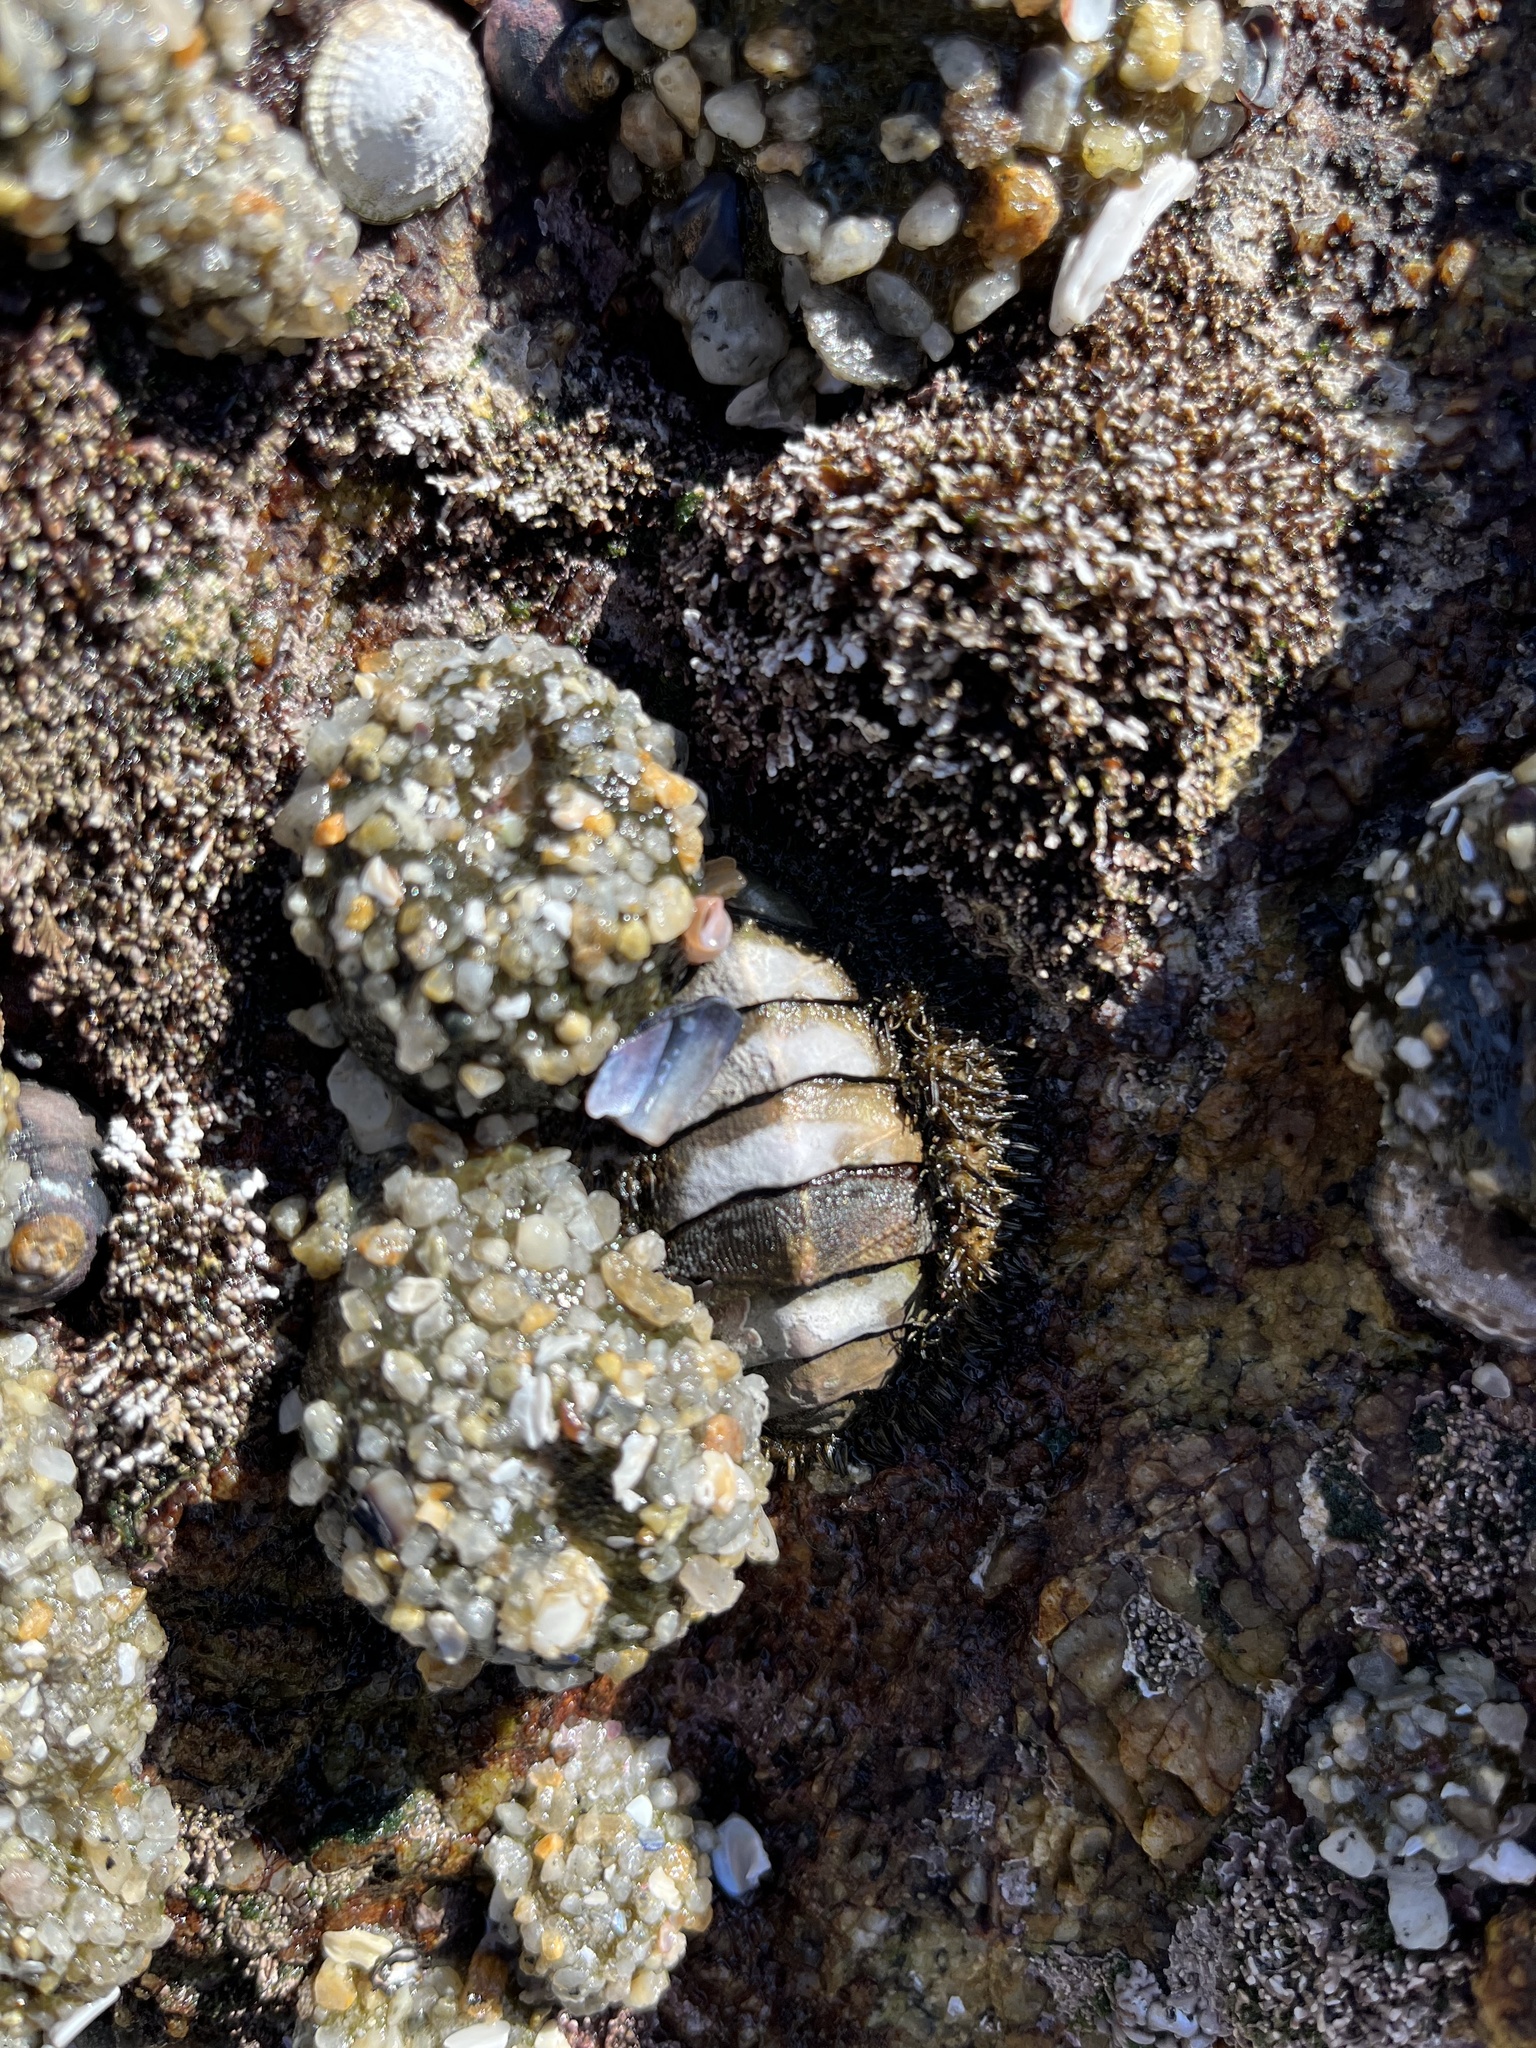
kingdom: Animalia
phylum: Mollusca
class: Polyplacophora
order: Chitonida
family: Mopaliidae
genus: Mopalia
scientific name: Mopalia muscosa
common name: Mossy chiton
